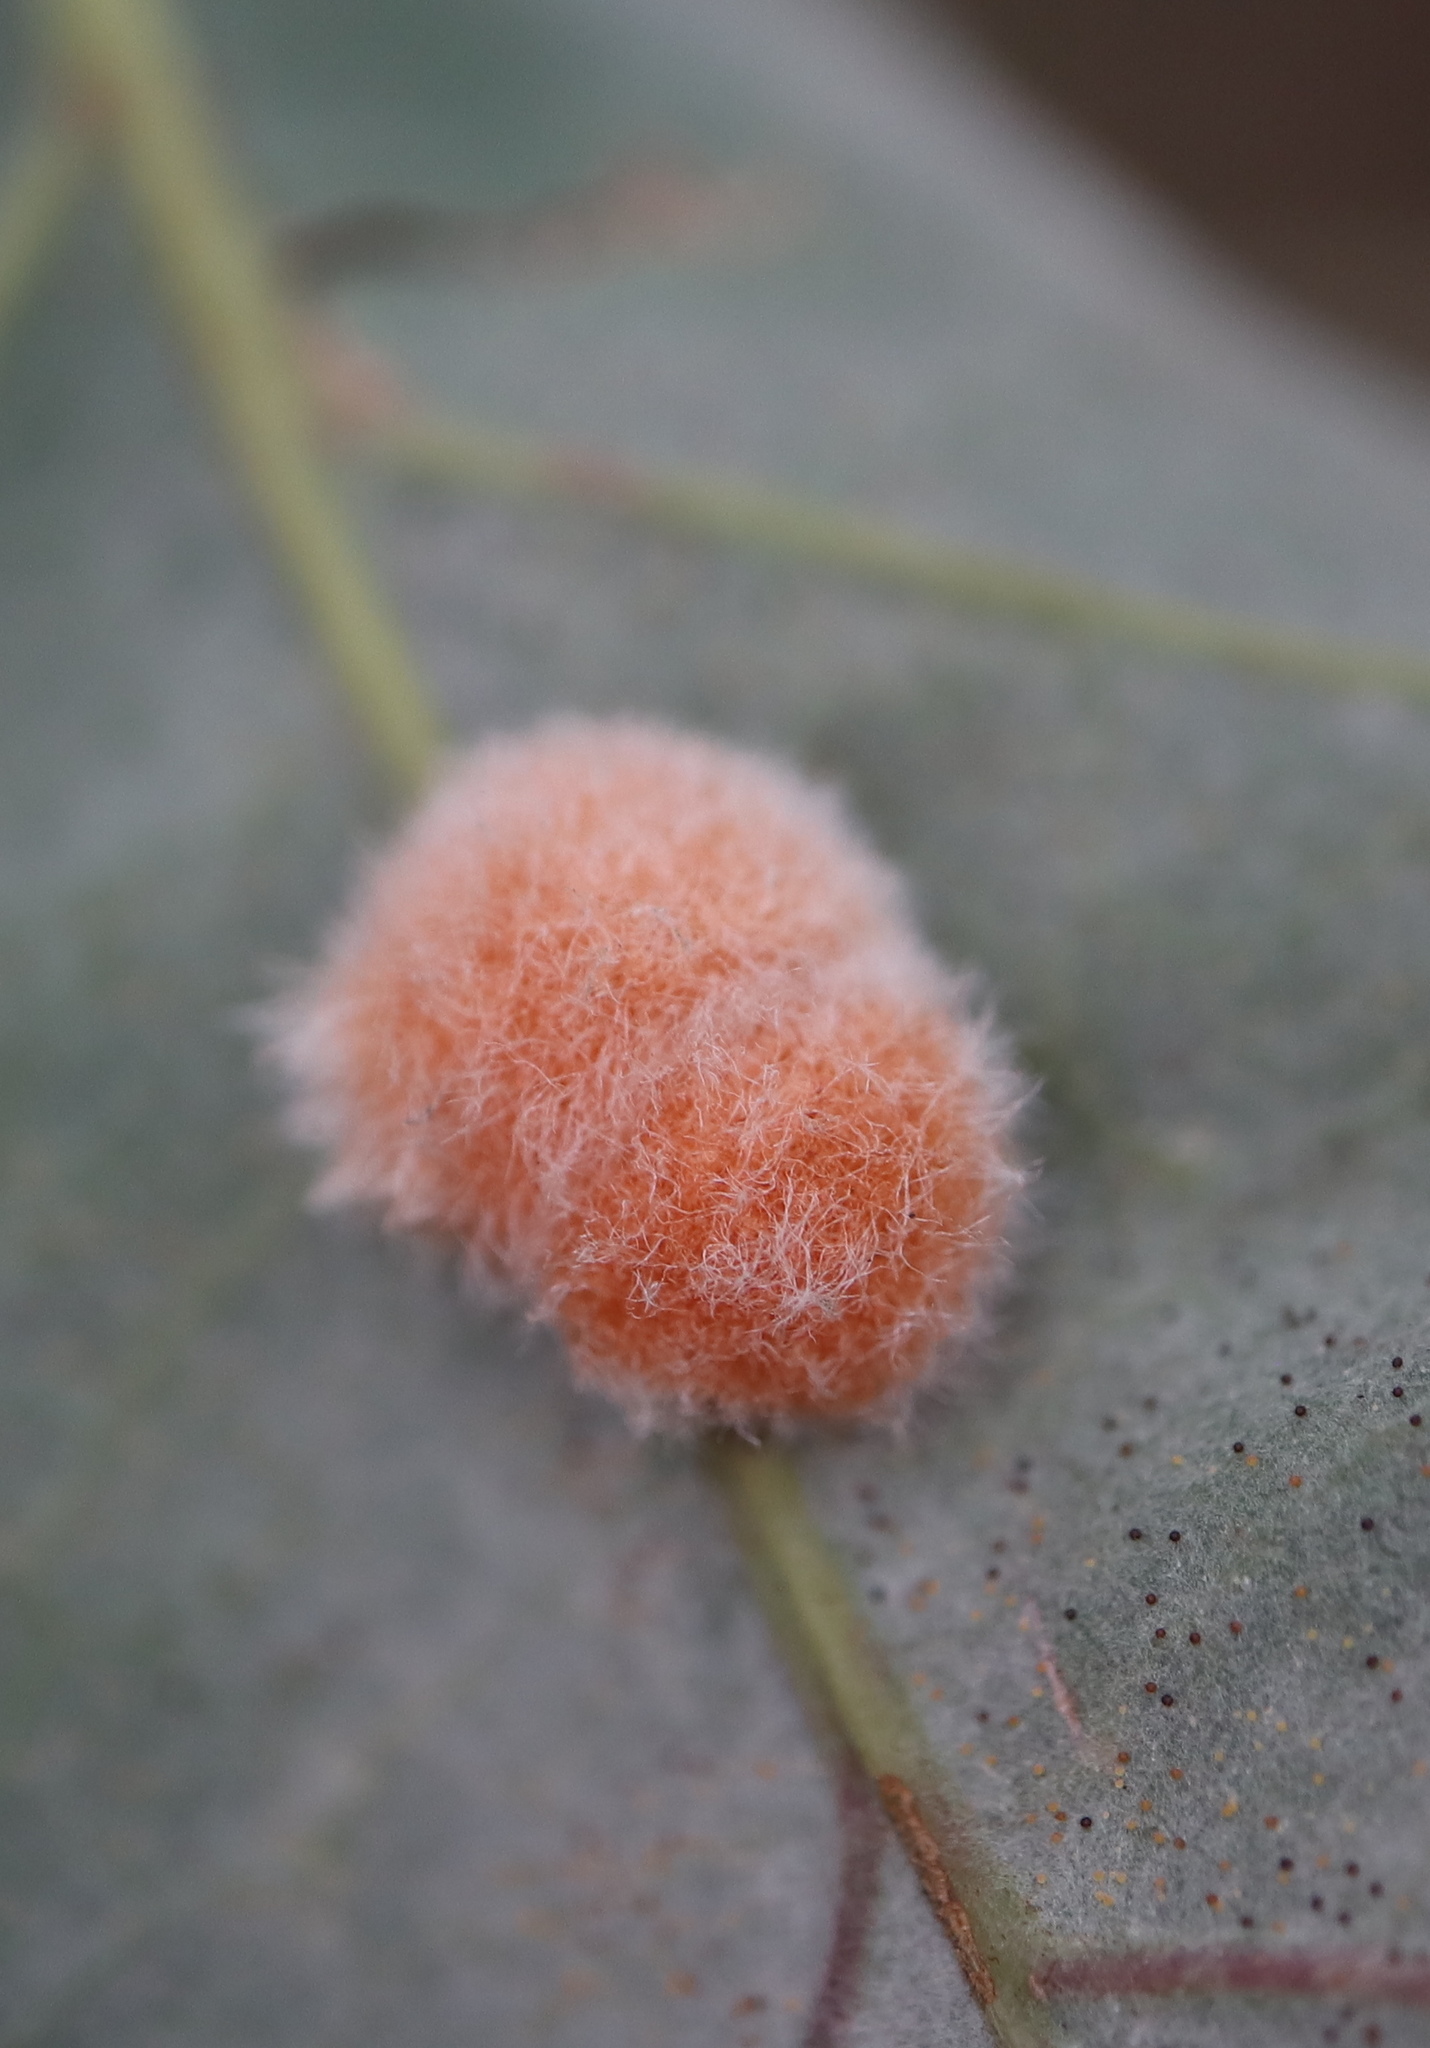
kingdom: Animalia
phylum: Arthropoda
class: Insecta
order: Hymenoptera
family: Cynipidae
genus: Andricus
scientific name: Andricus quercusflocci
